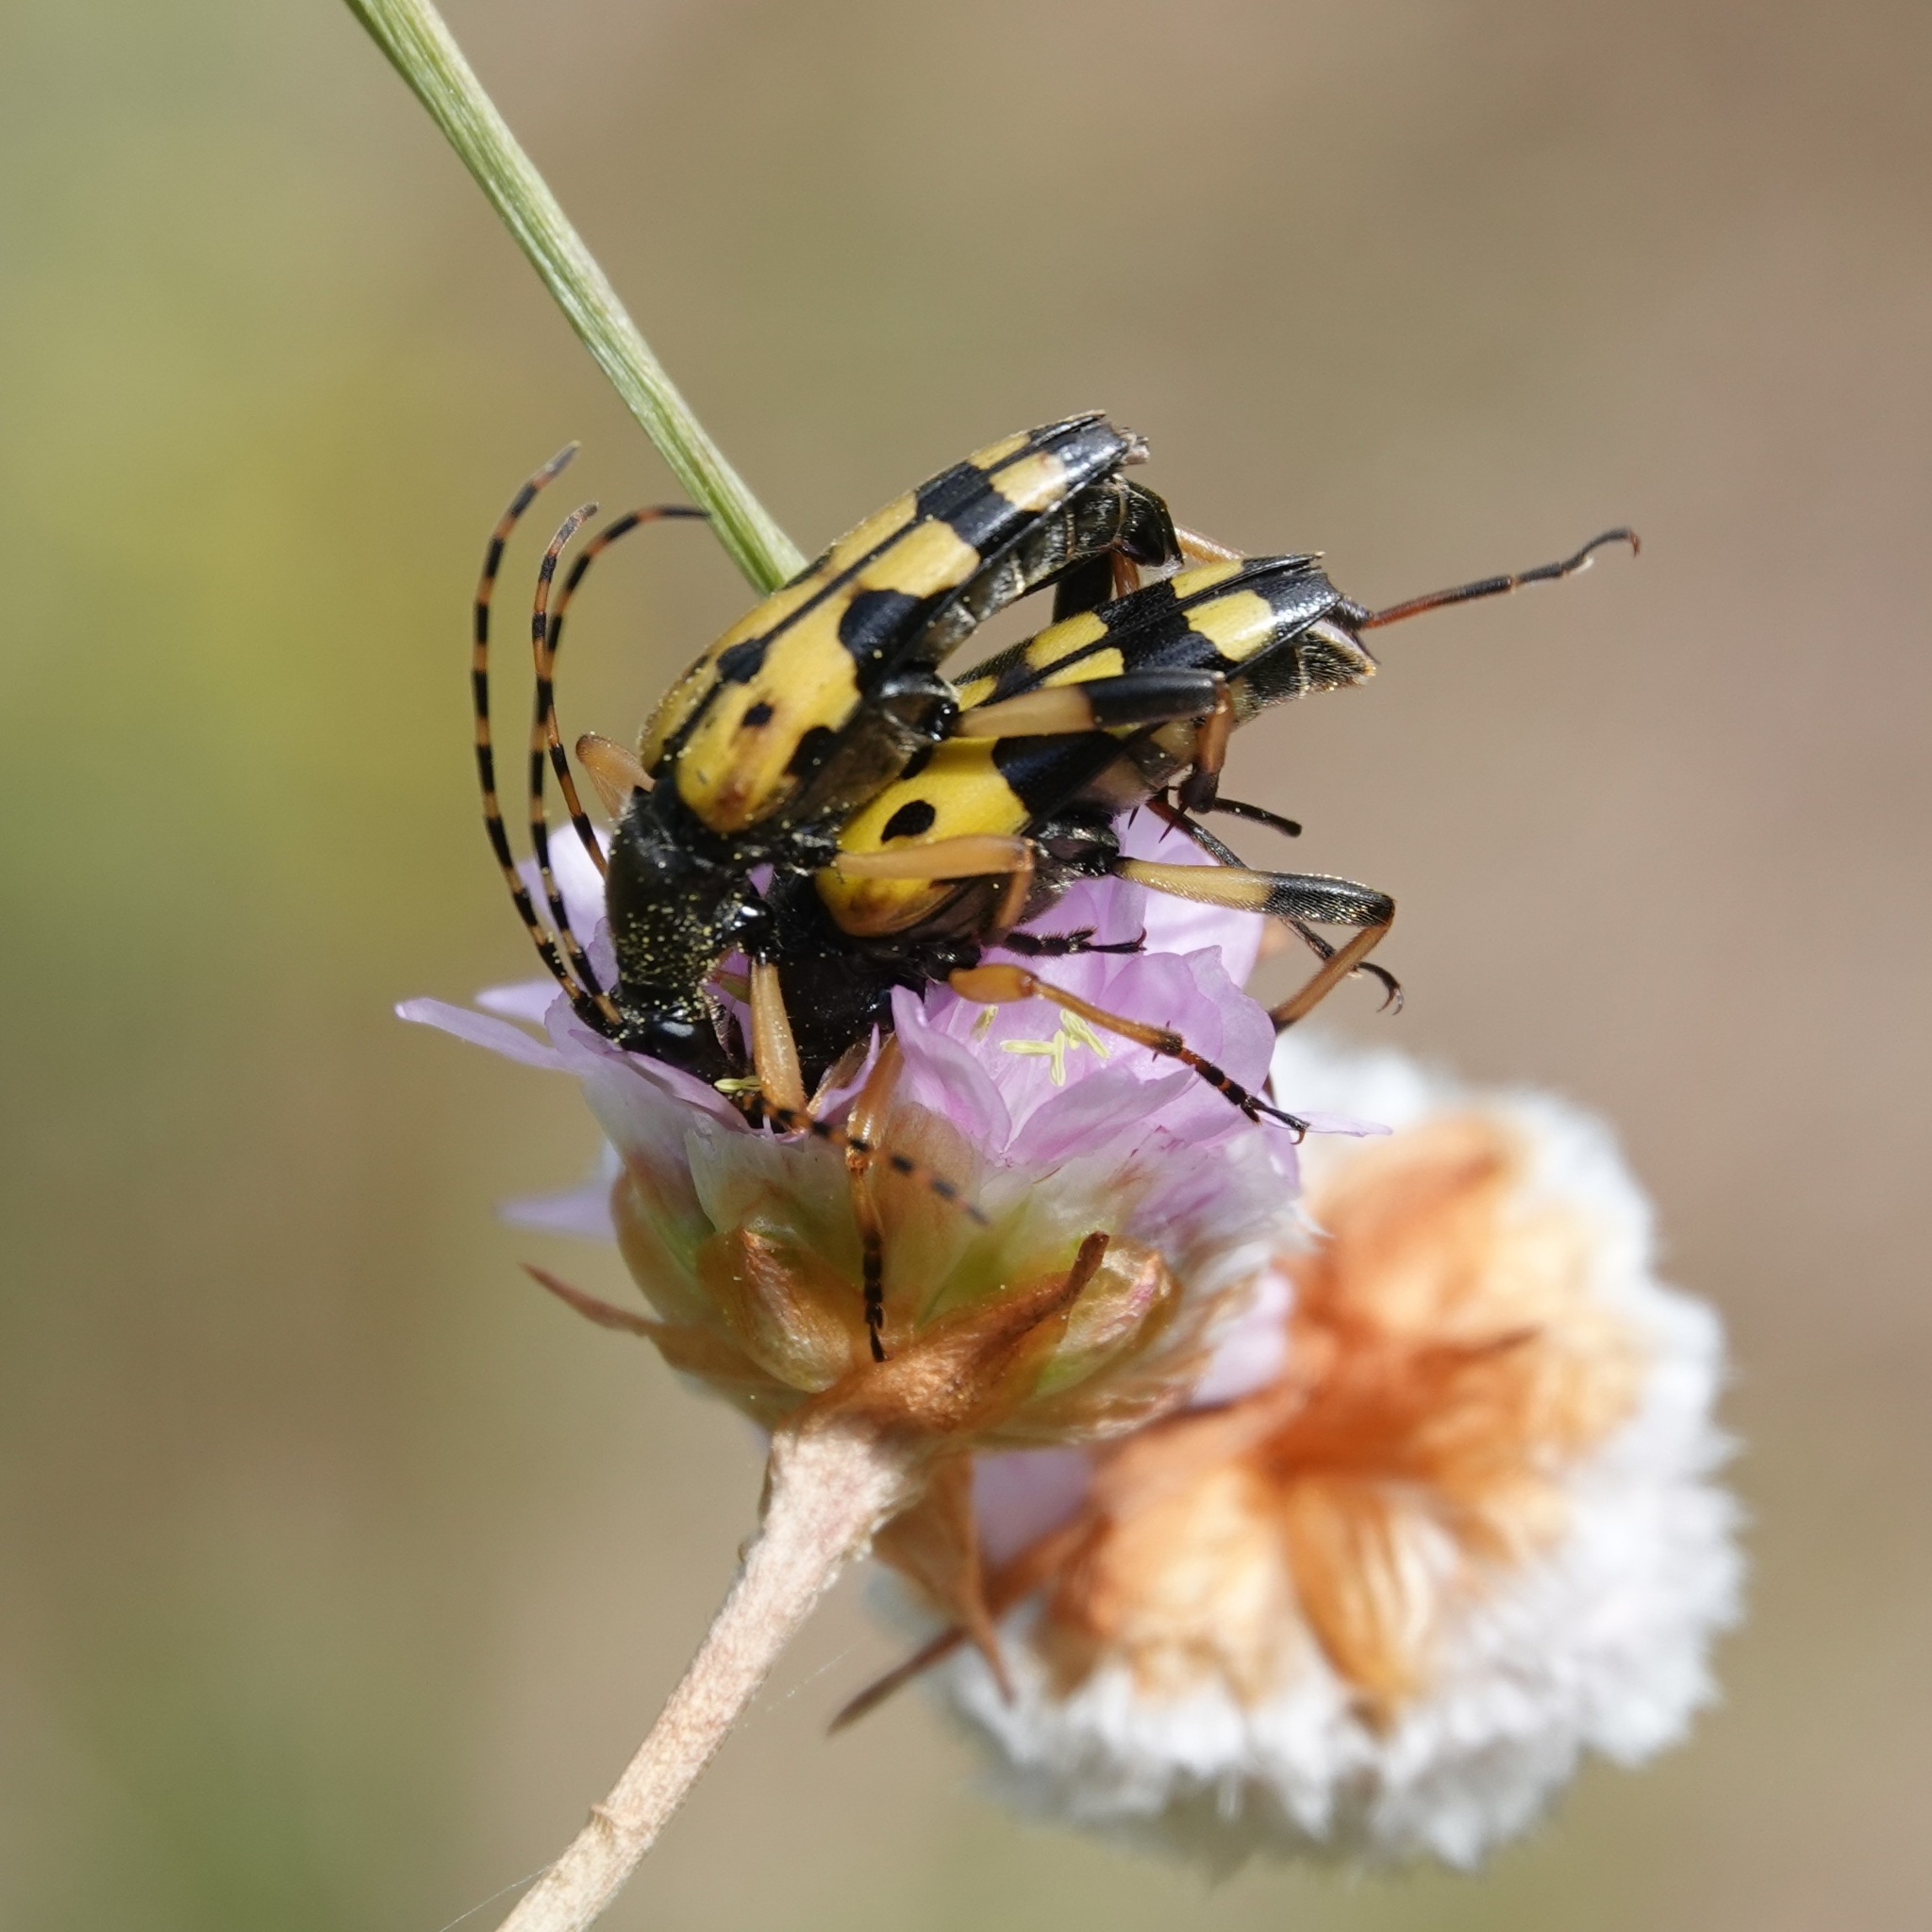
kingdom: Animalia
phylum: Arthropoda
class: Insecta
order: Coleoptera
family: Cerambycidae
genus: Rutpela
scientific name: Rutpela maculata
